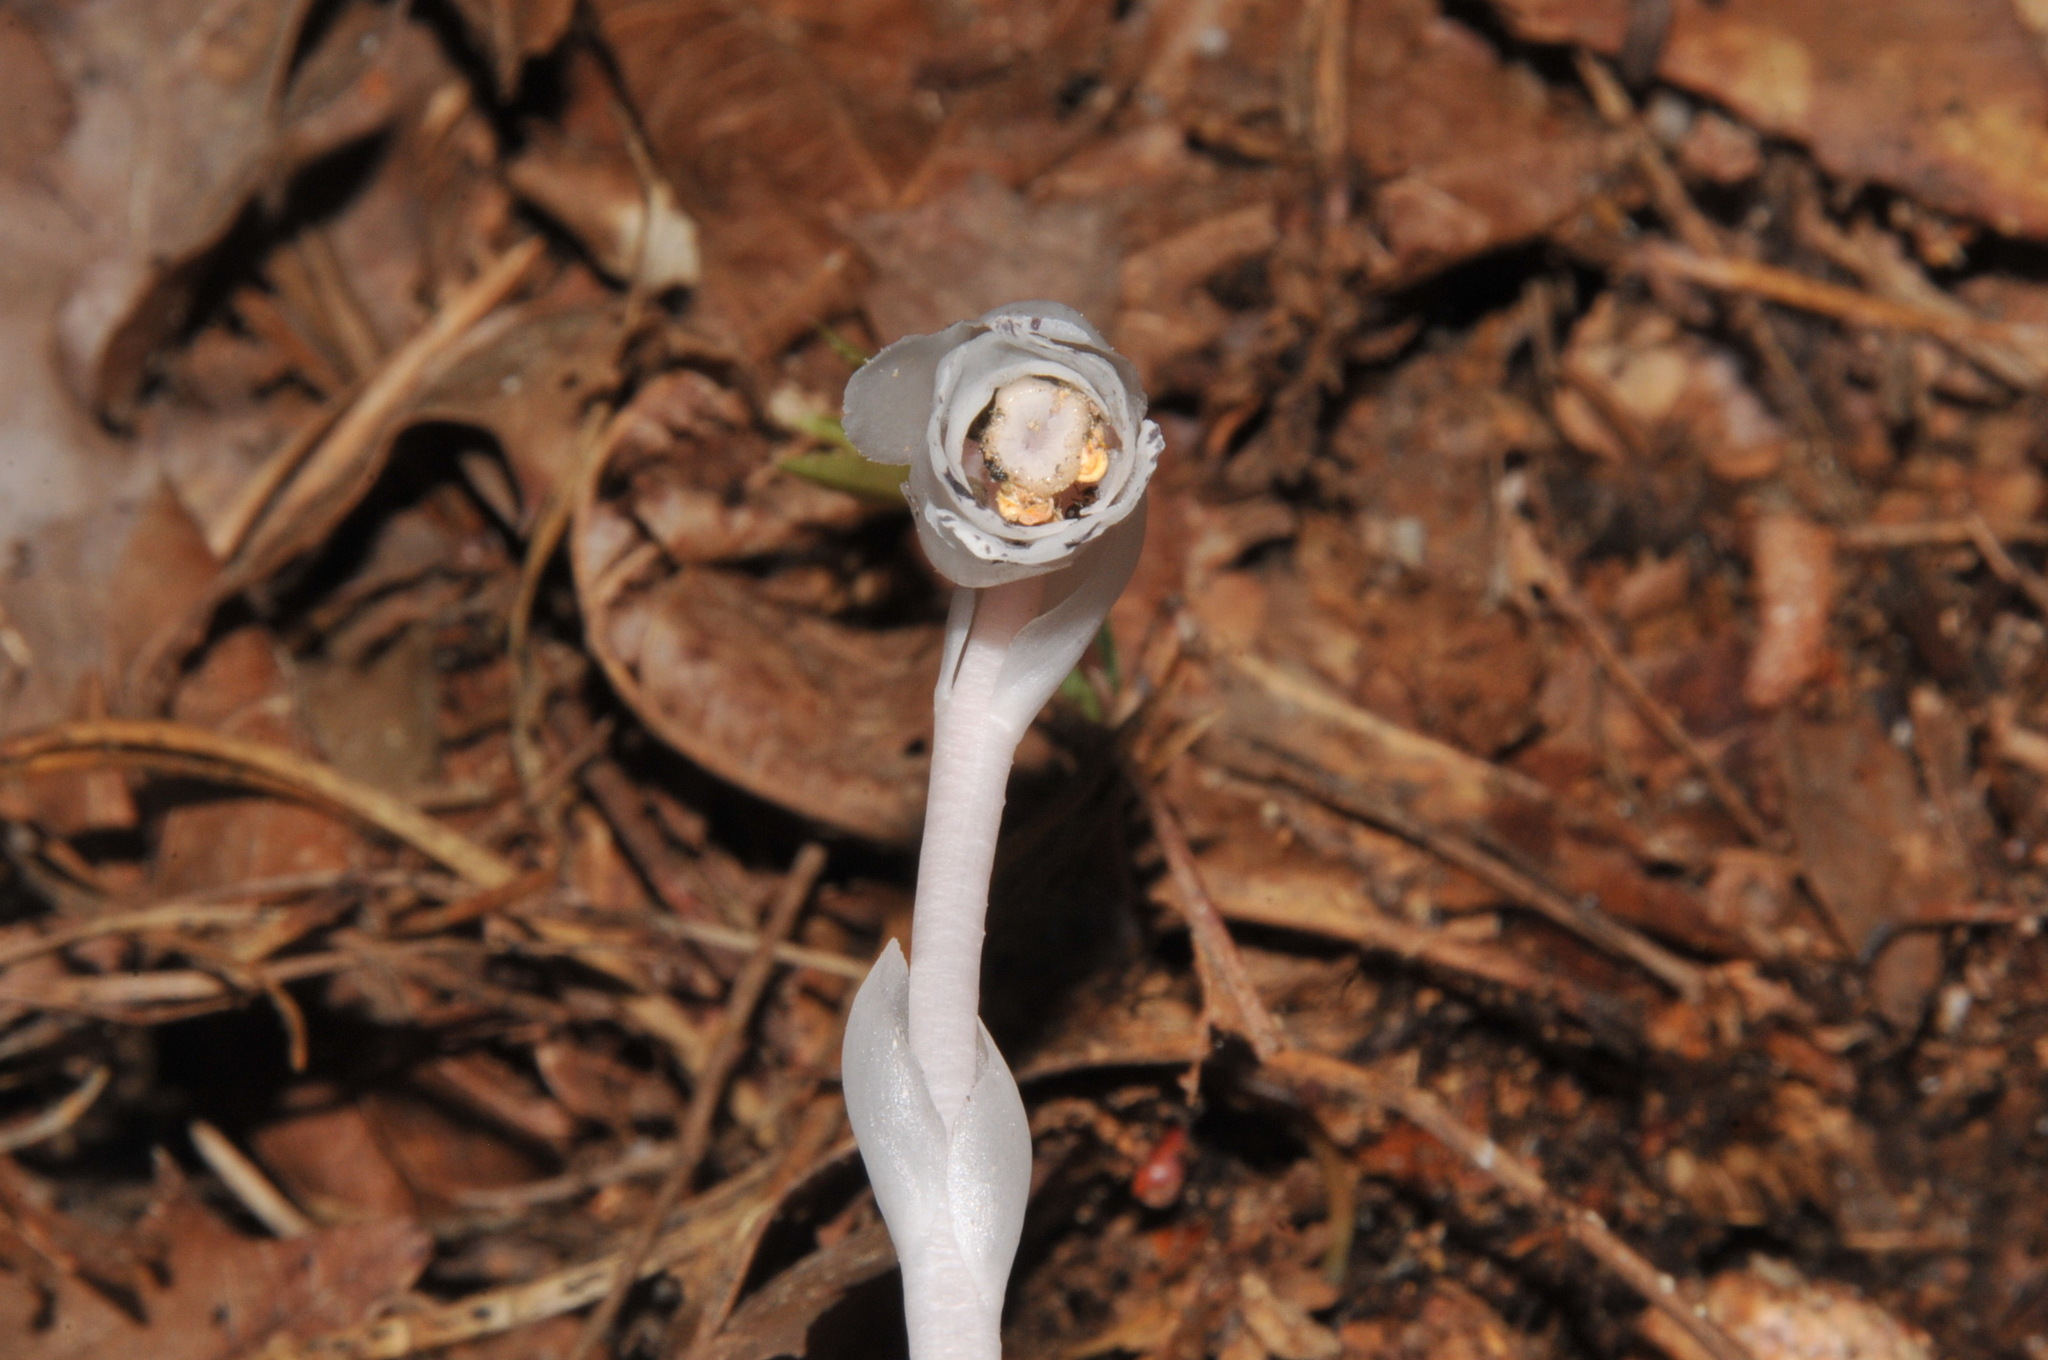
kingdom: Plantae
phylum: Tracheophyta
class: Magnoliopsida
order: Ericales
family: Ericaceae
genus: Monotropa
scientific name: Monotropa uniflora
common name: Convulsion root
